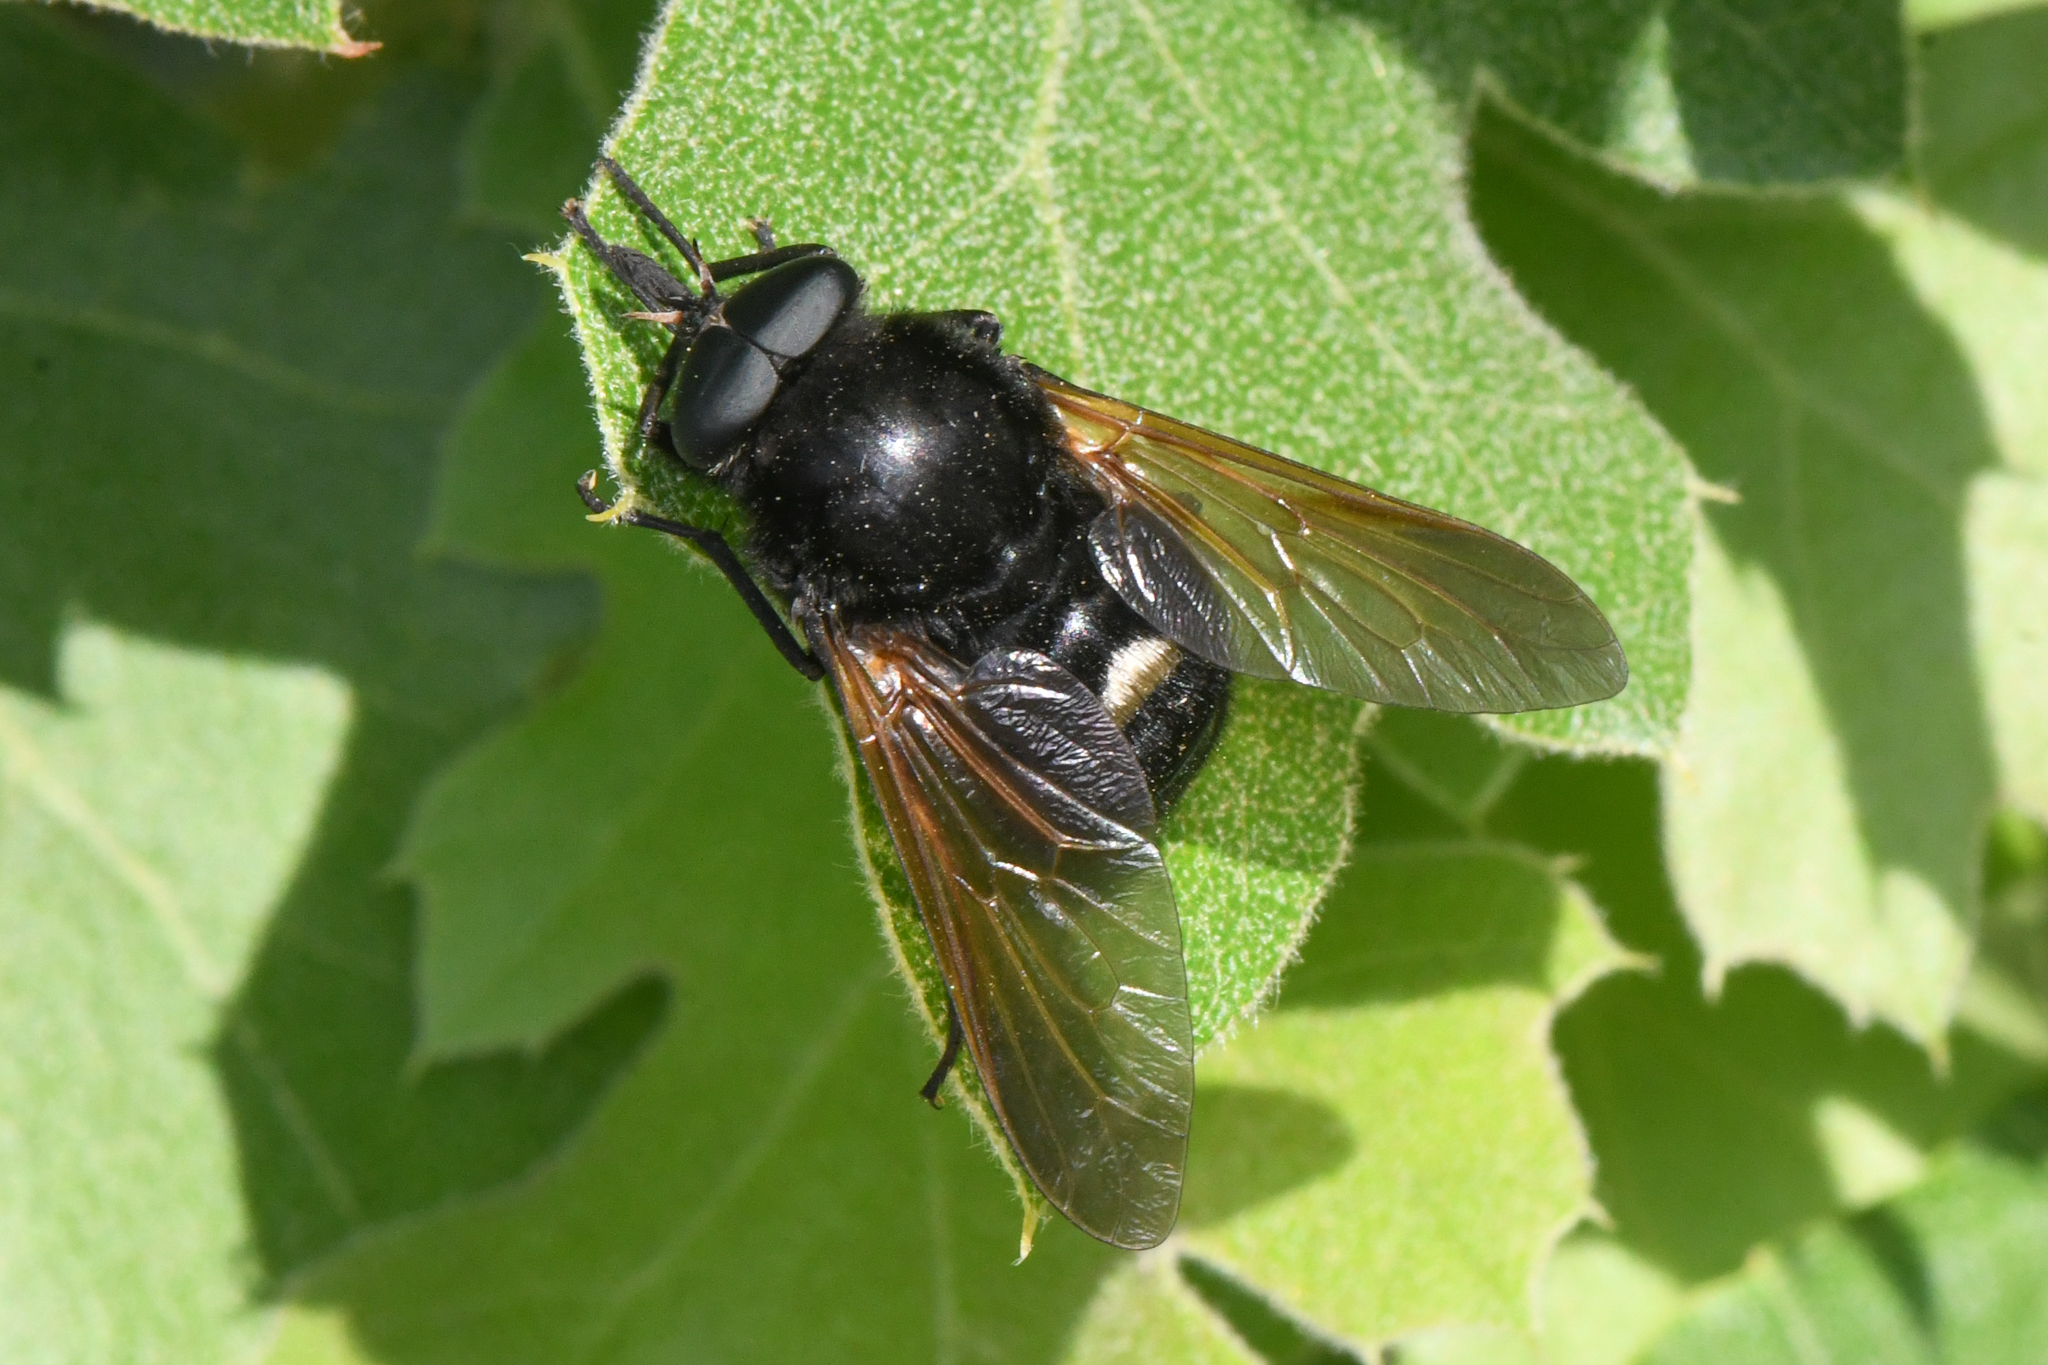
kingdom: Animalia
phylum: Arthropoda
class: Insecta
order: Diptera
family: Tabanidae
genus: Stonemyia
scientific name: Stonemyia velutina
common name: Volutine stoneyian tabanid fly
